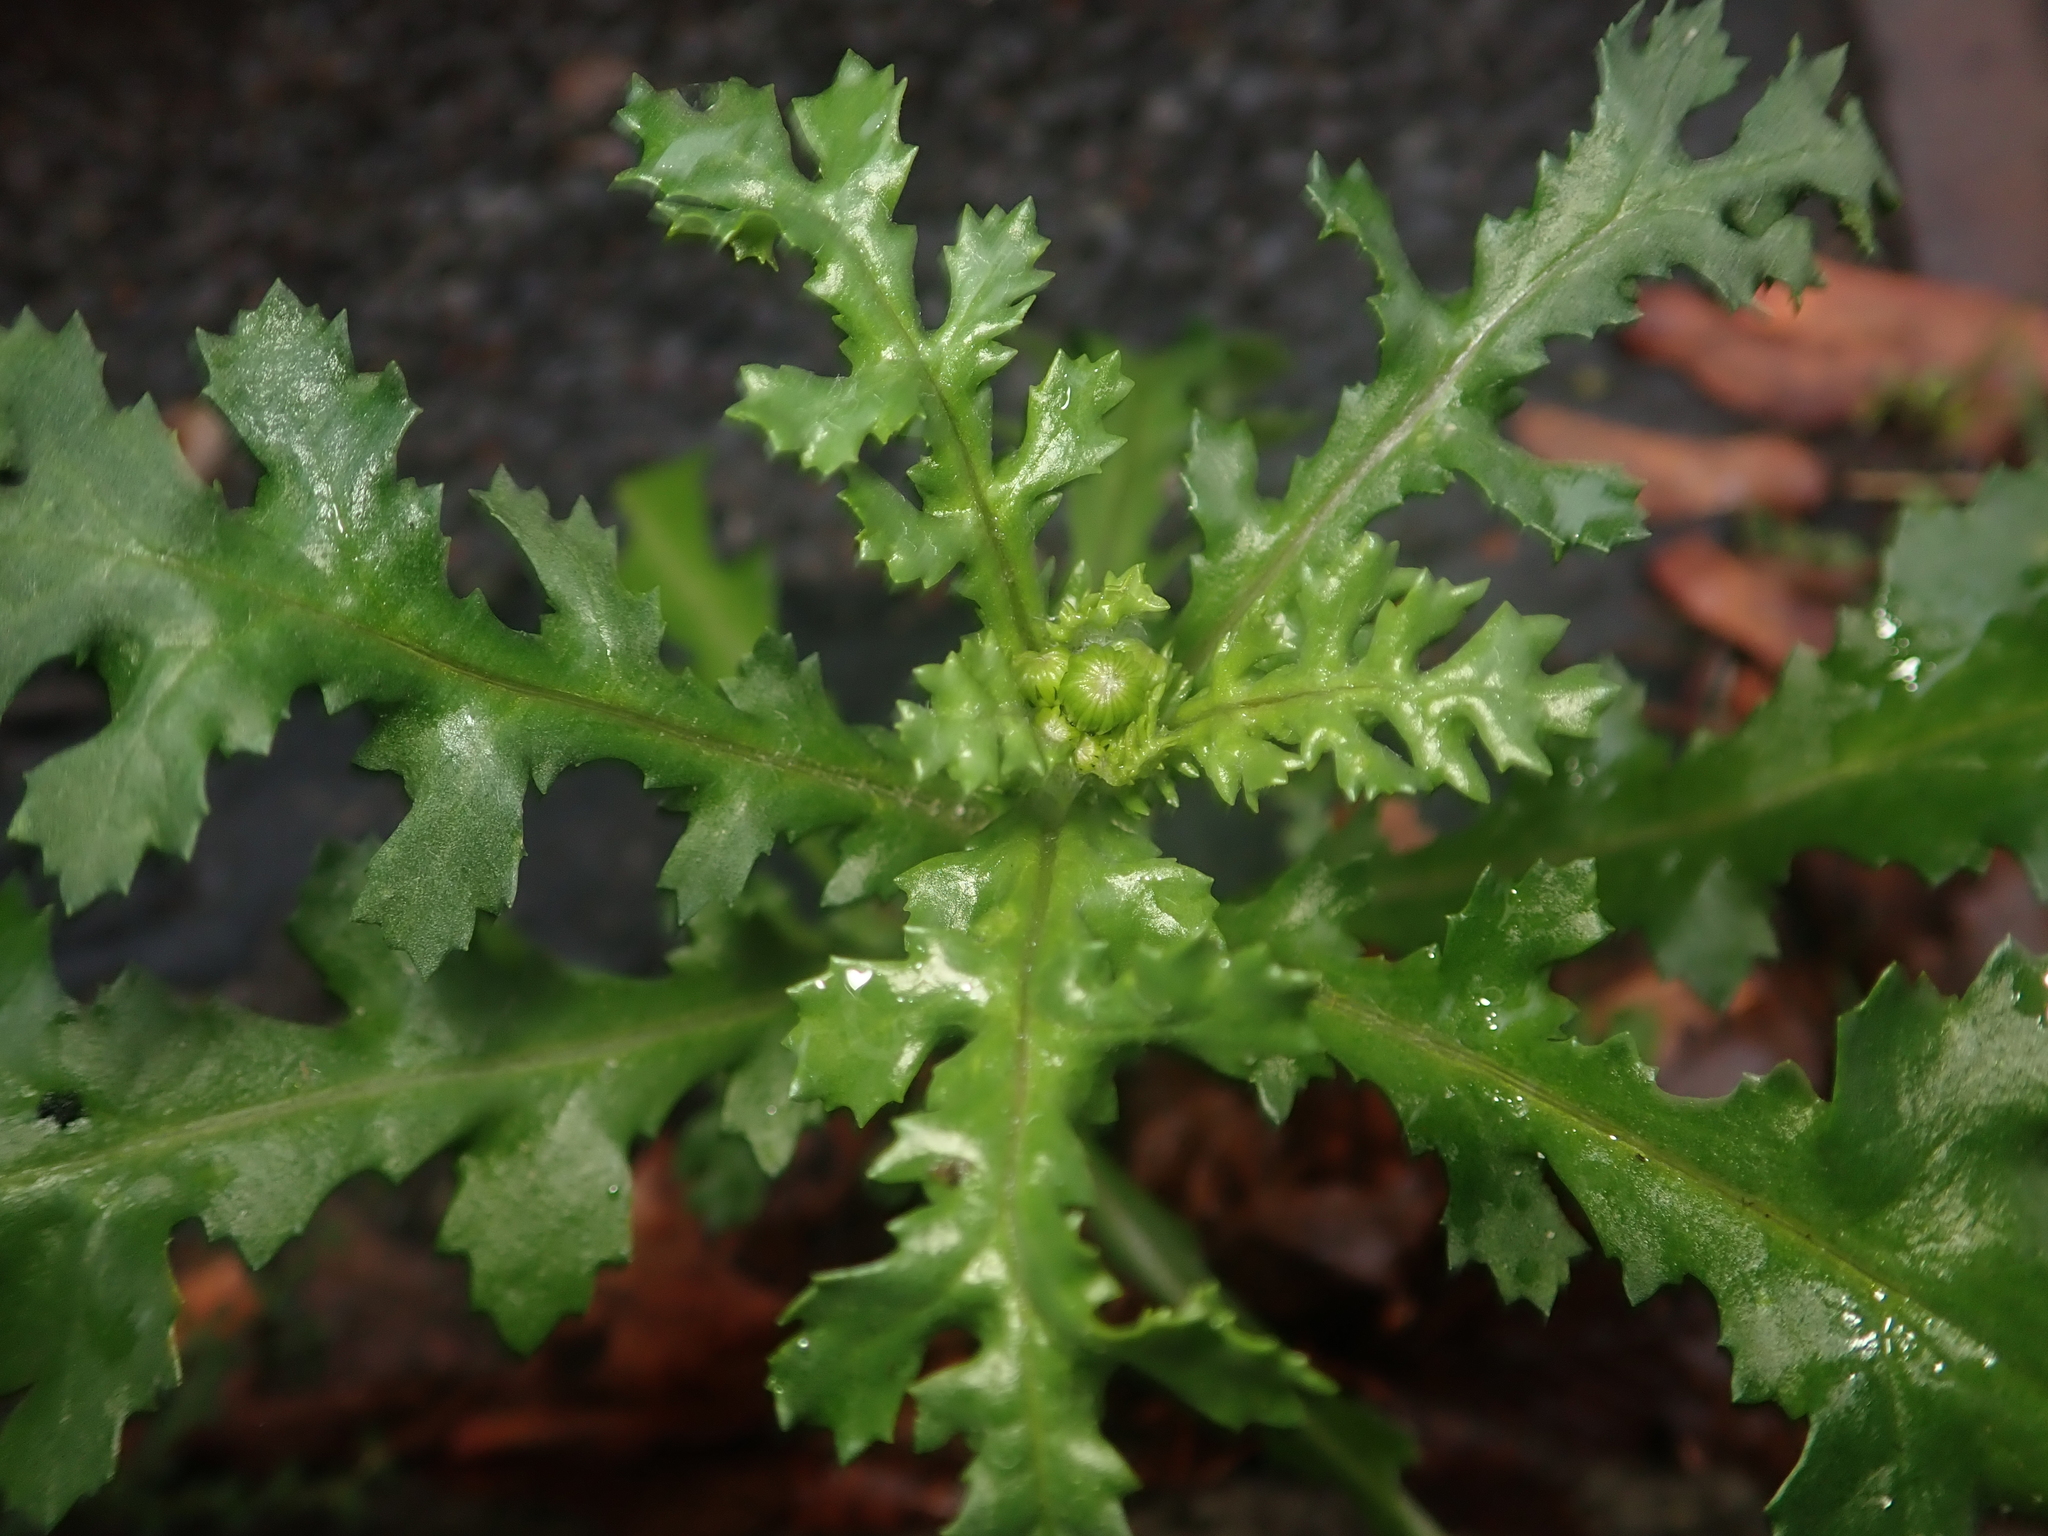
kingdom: Plantae
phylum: Tracheophyta
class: Magnoliopsida
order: Asterales
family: Asteraceae
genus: Senecio
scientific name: Senecio vulgaris
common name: Old-man-in-the-spring
